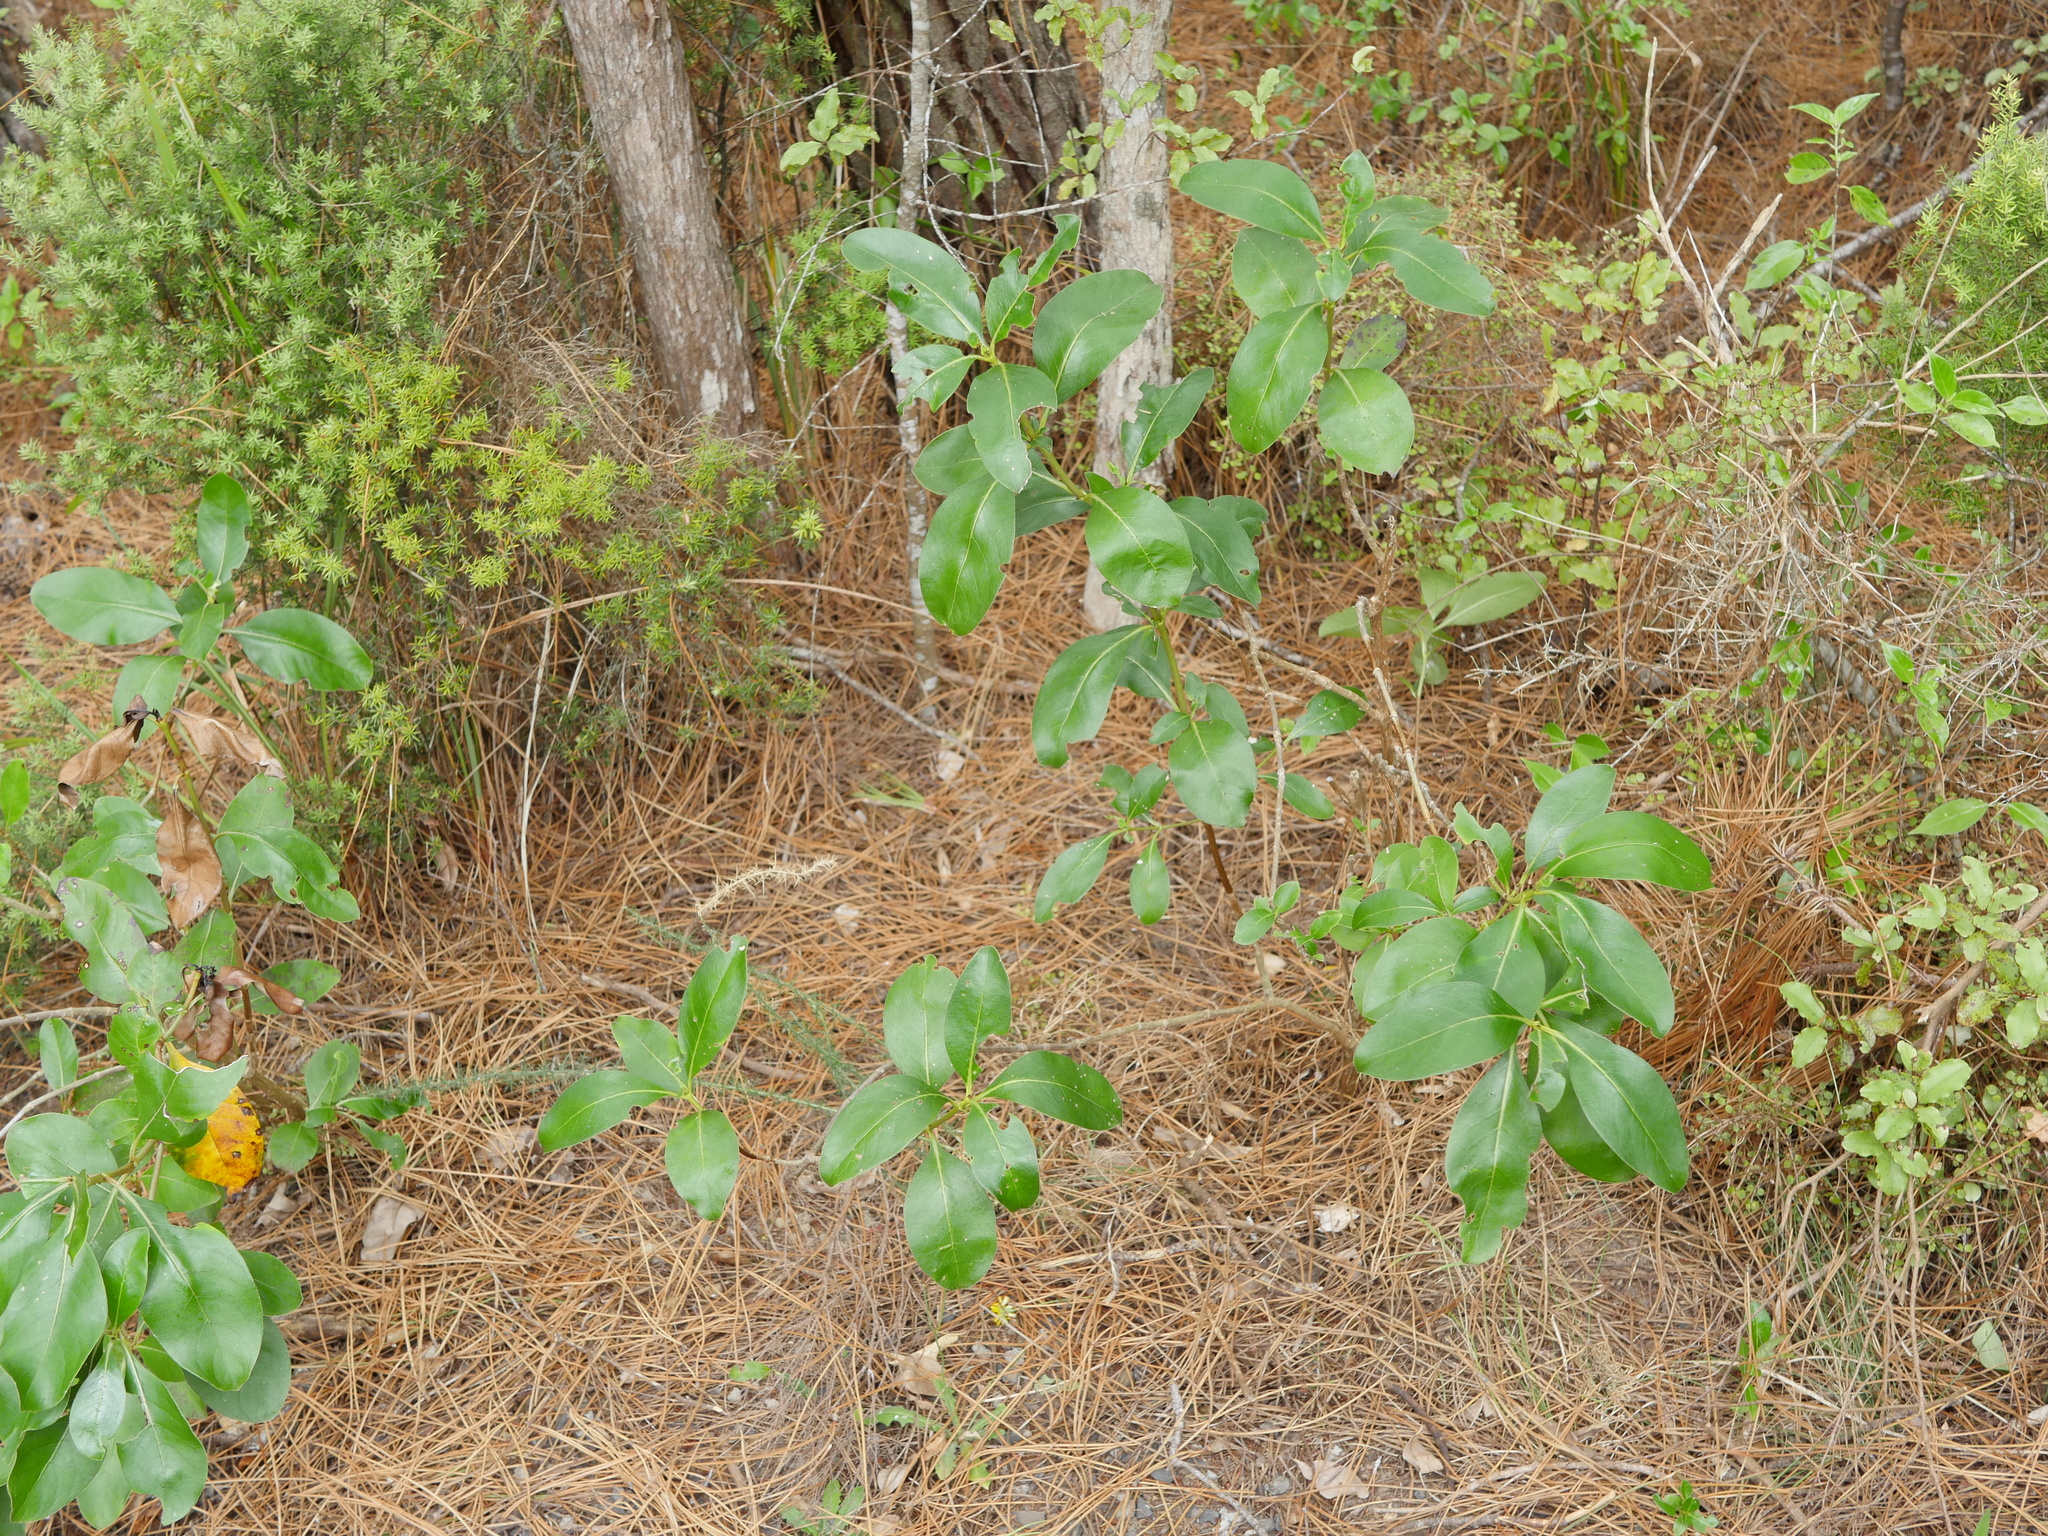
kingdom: Plantae
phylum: Tracheophyta
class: Magnoliopsida
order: Gentianales
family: Rubiaceae
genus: Coprosma
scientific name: Coprosma robusta
